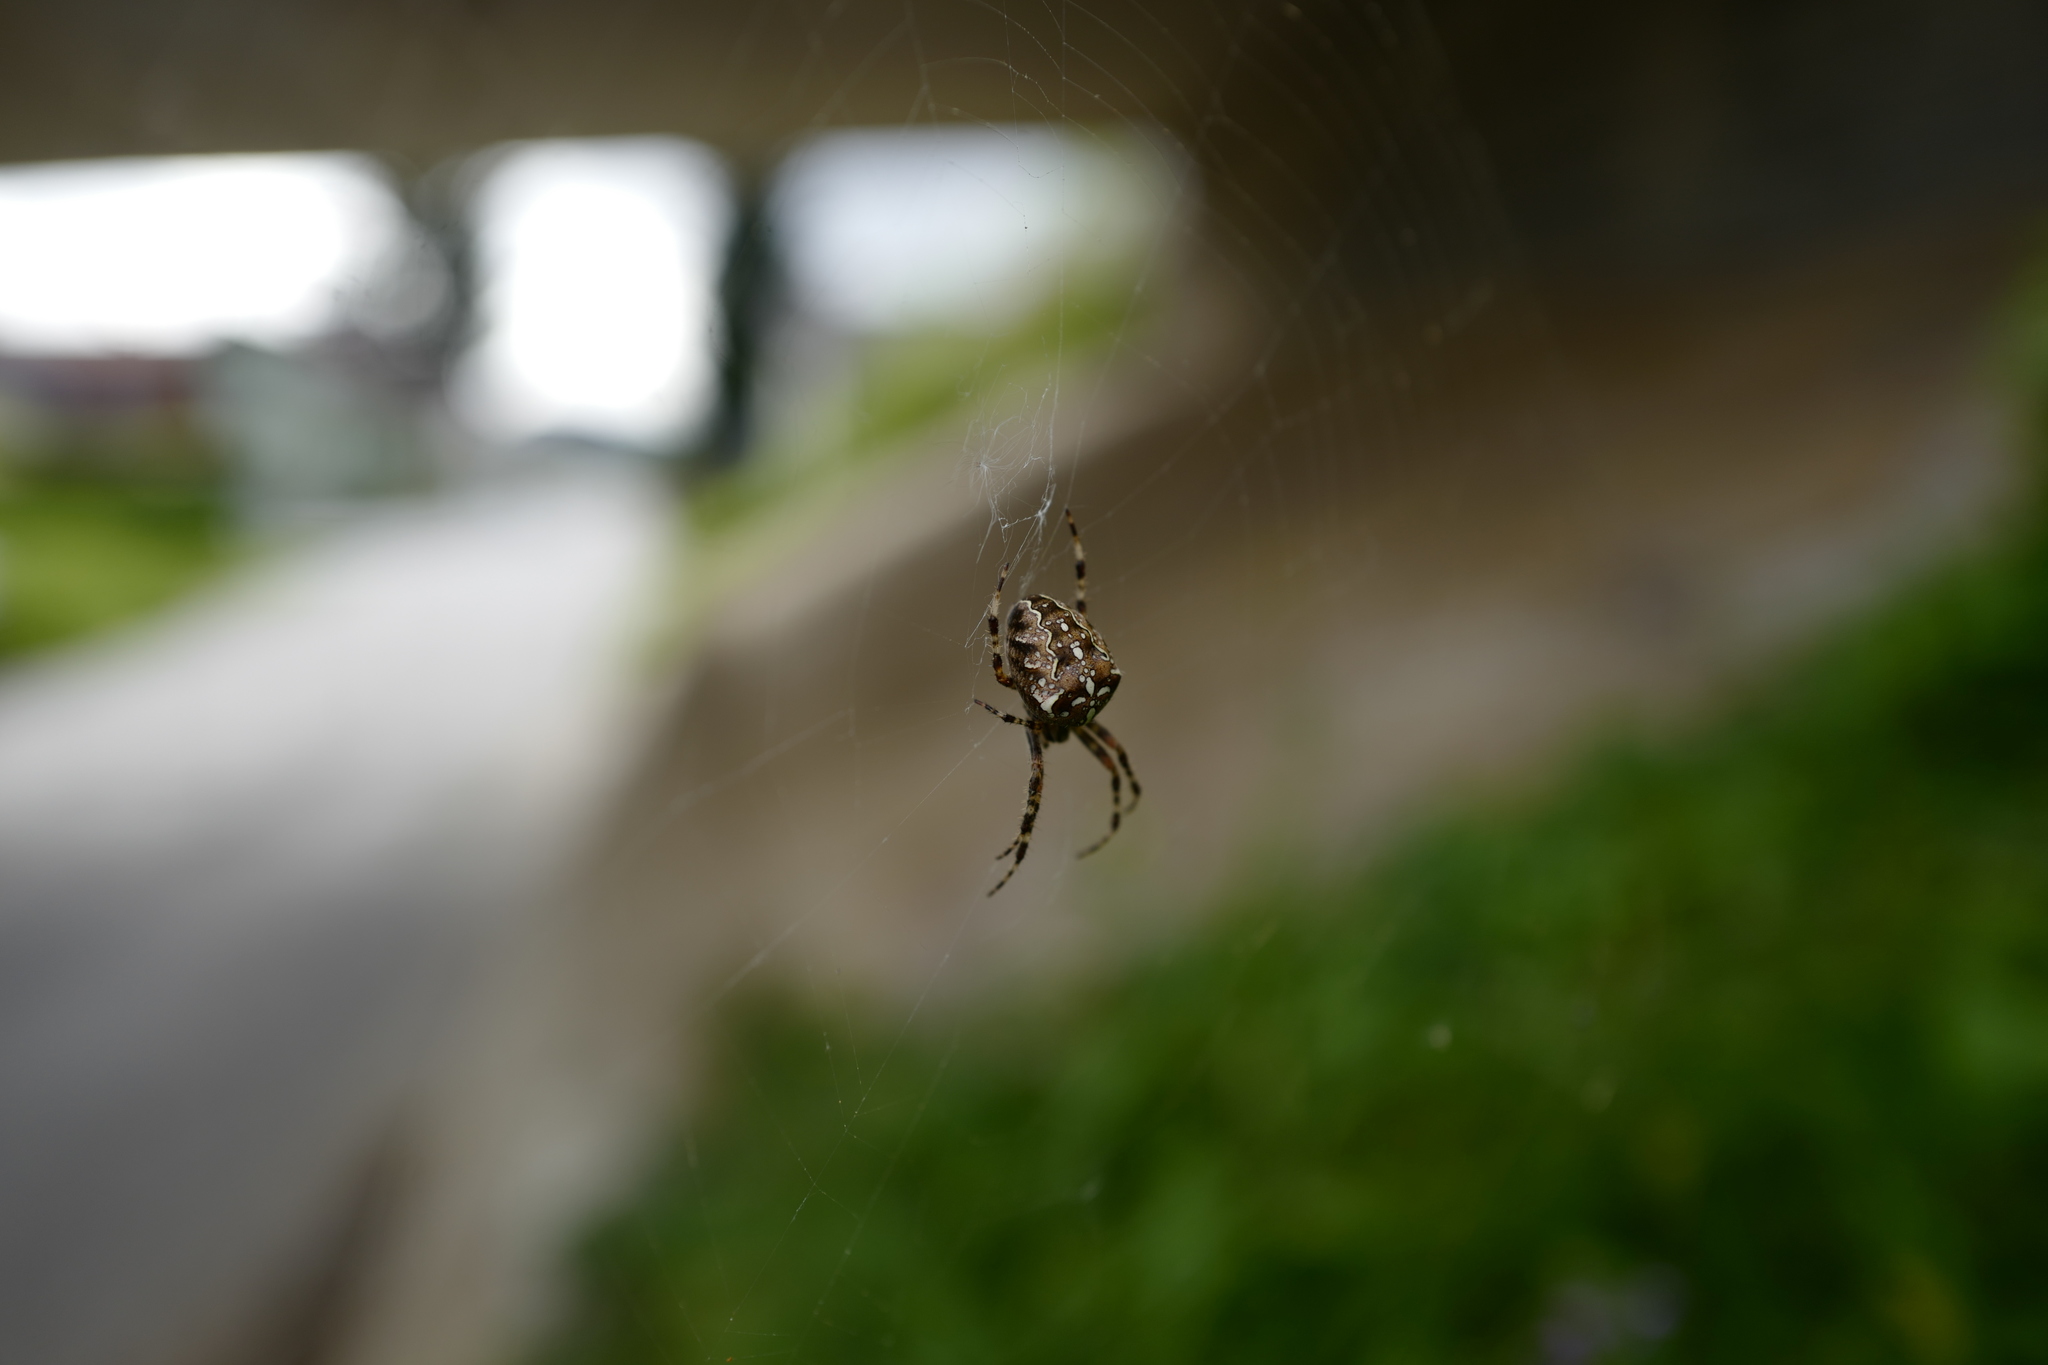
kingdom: Animalia
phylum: Arthropoda
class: Arachnida
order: Araneae
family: Araneidae
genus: Araneus
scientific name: Araneus diadematus
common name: Cross orbweaver
